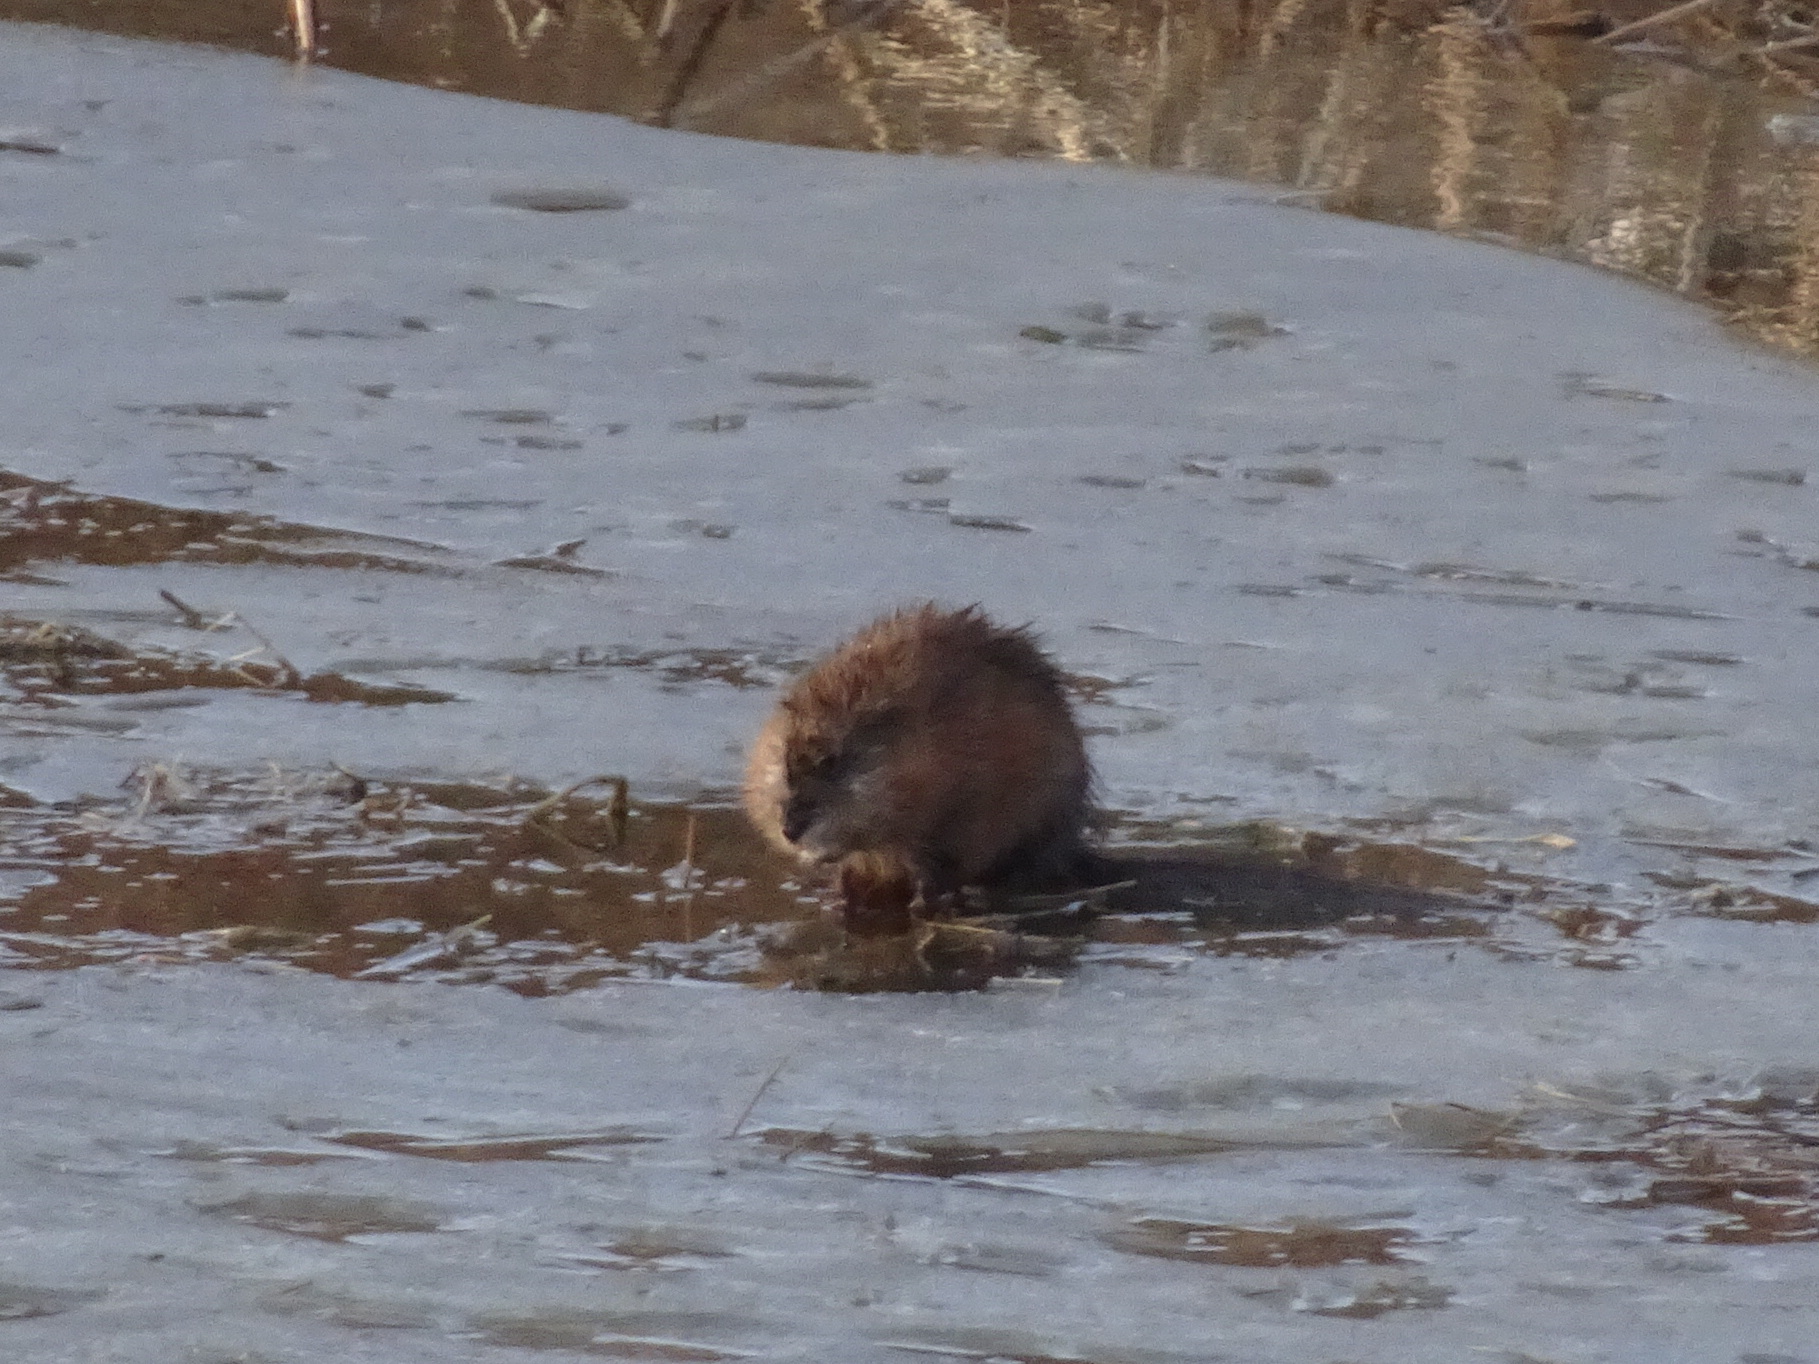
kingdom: Animalia
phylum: Chordata
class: Mammalia
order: Rodentia
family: Cricetidae
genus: Ondatra
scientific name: Ondatra zibethicus
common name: Muskrat
